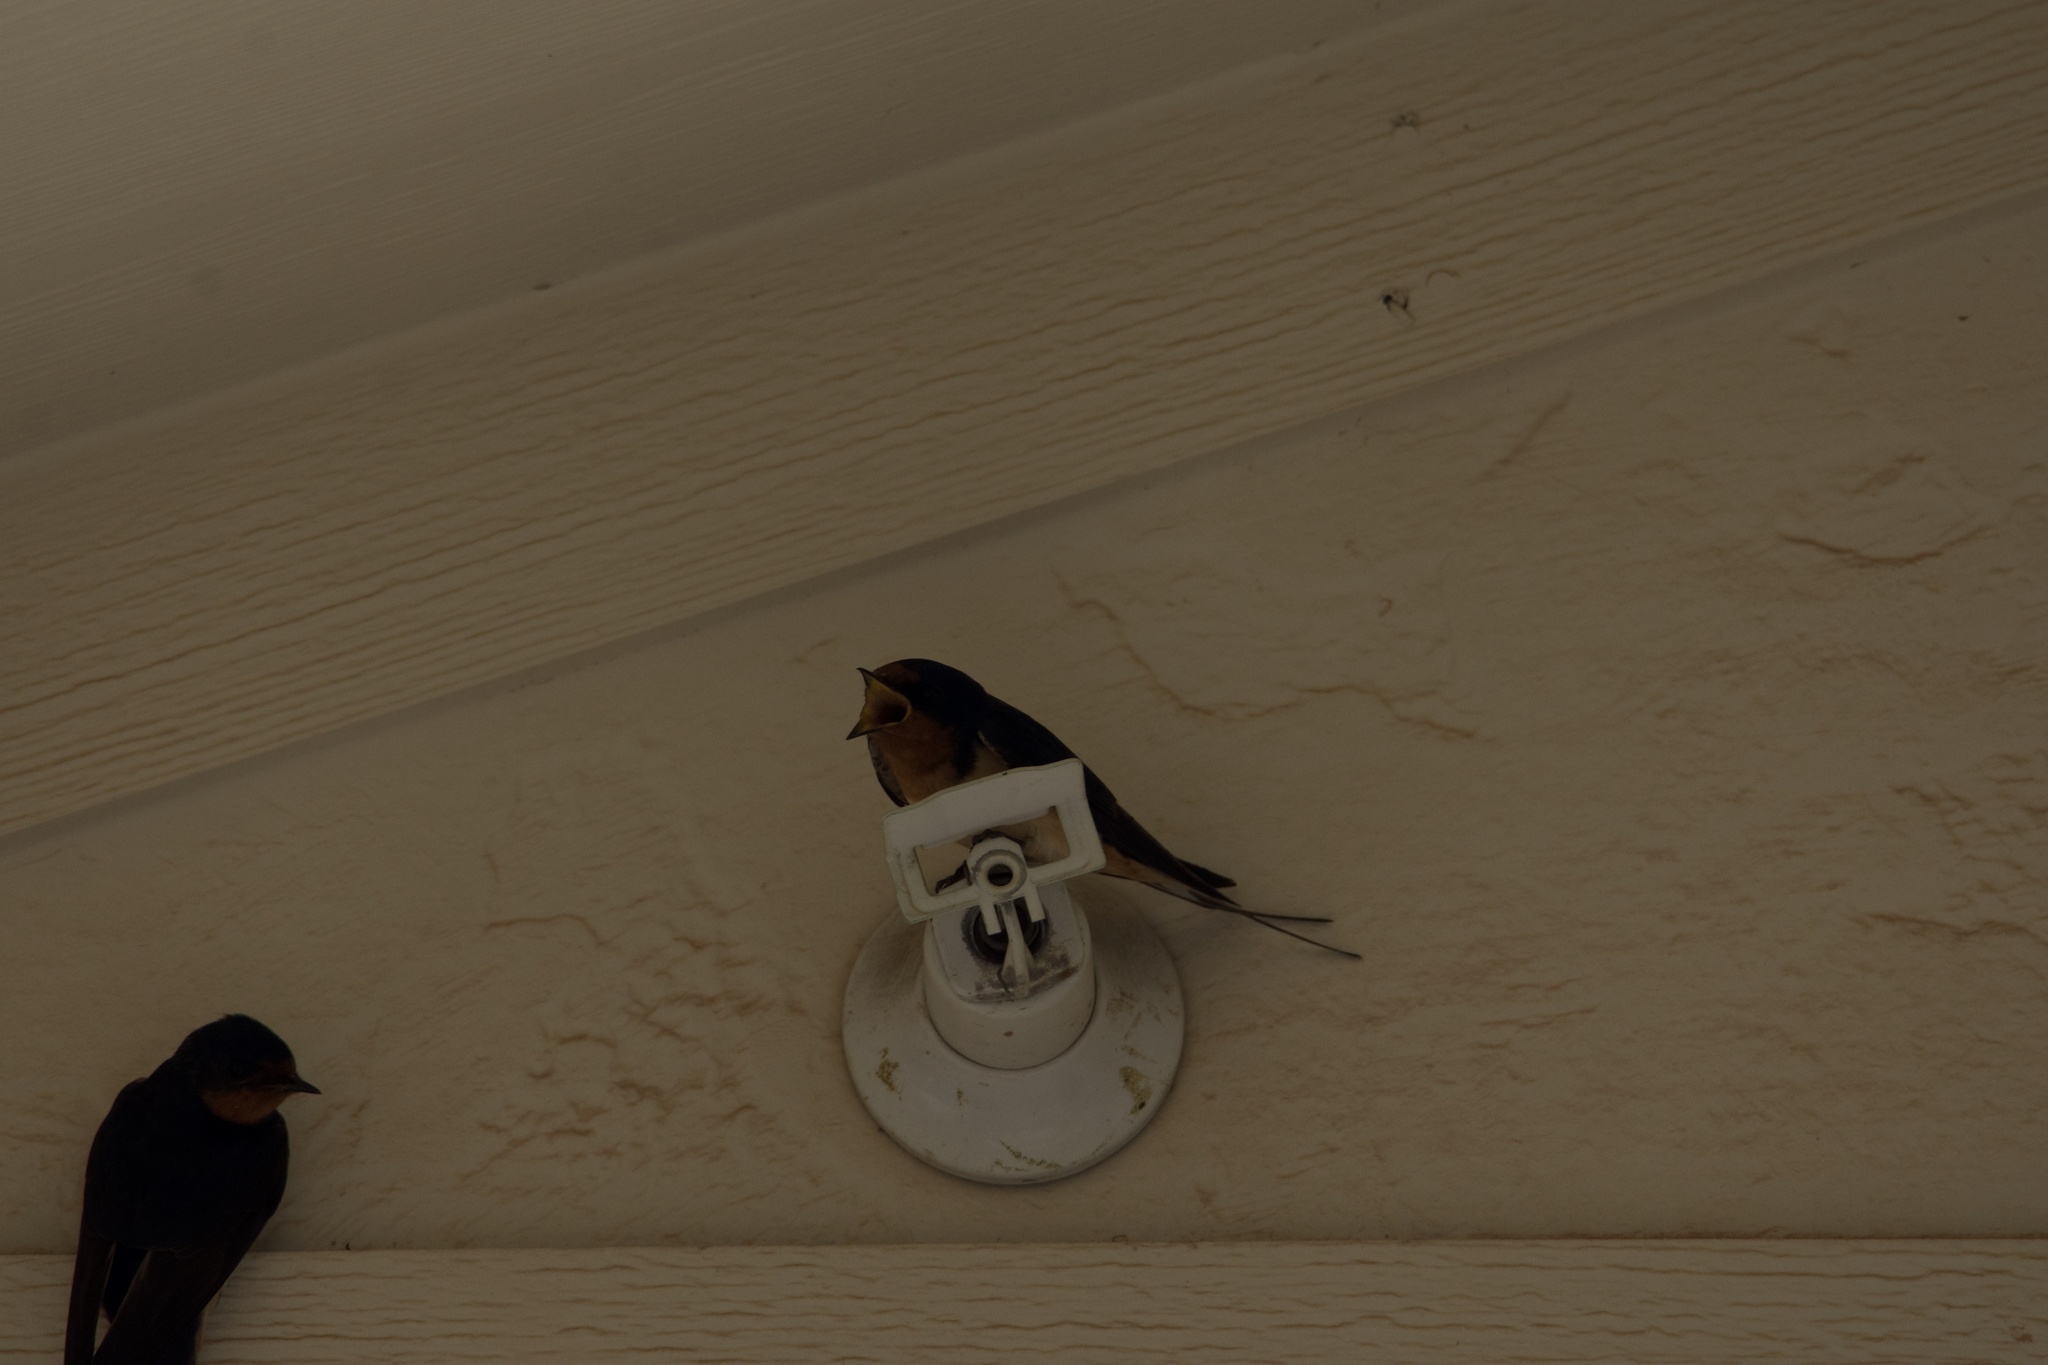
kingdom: Animalia
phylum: Chordata
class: Aves
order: Passeriformes
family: Hirundinidae
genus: Hirundo
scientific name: Hirundo rustica
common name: Barn swallow
